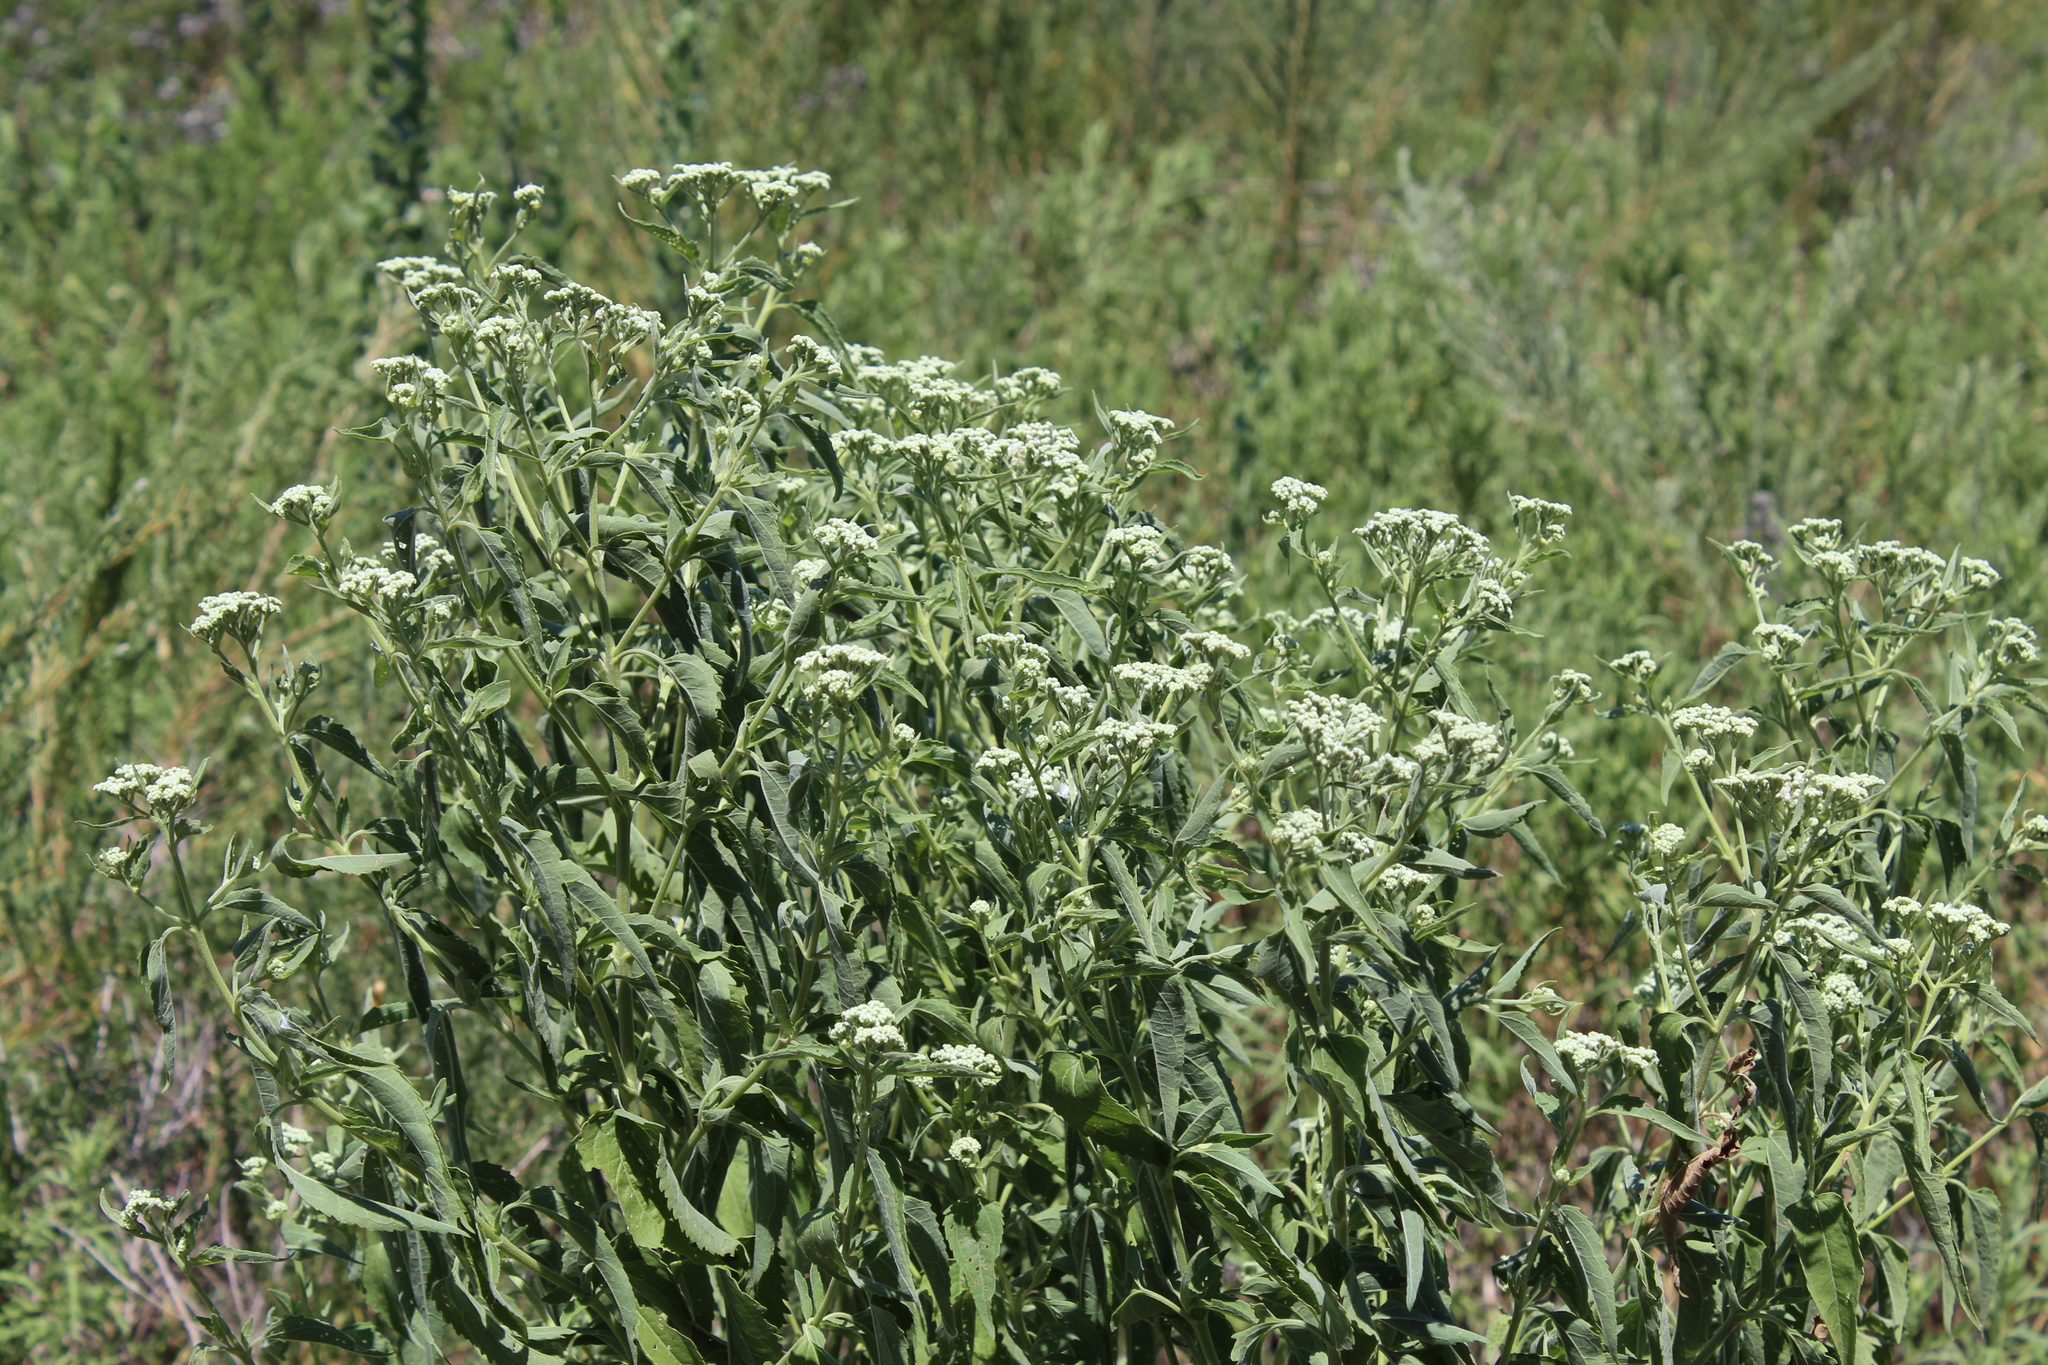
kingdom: Plantae
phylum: Tracheophyta
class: Magnoliopsida
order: Asterales
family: Asteraceae
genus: Eupatorium
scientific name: Eupatorium serotinum
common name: Late boneset
